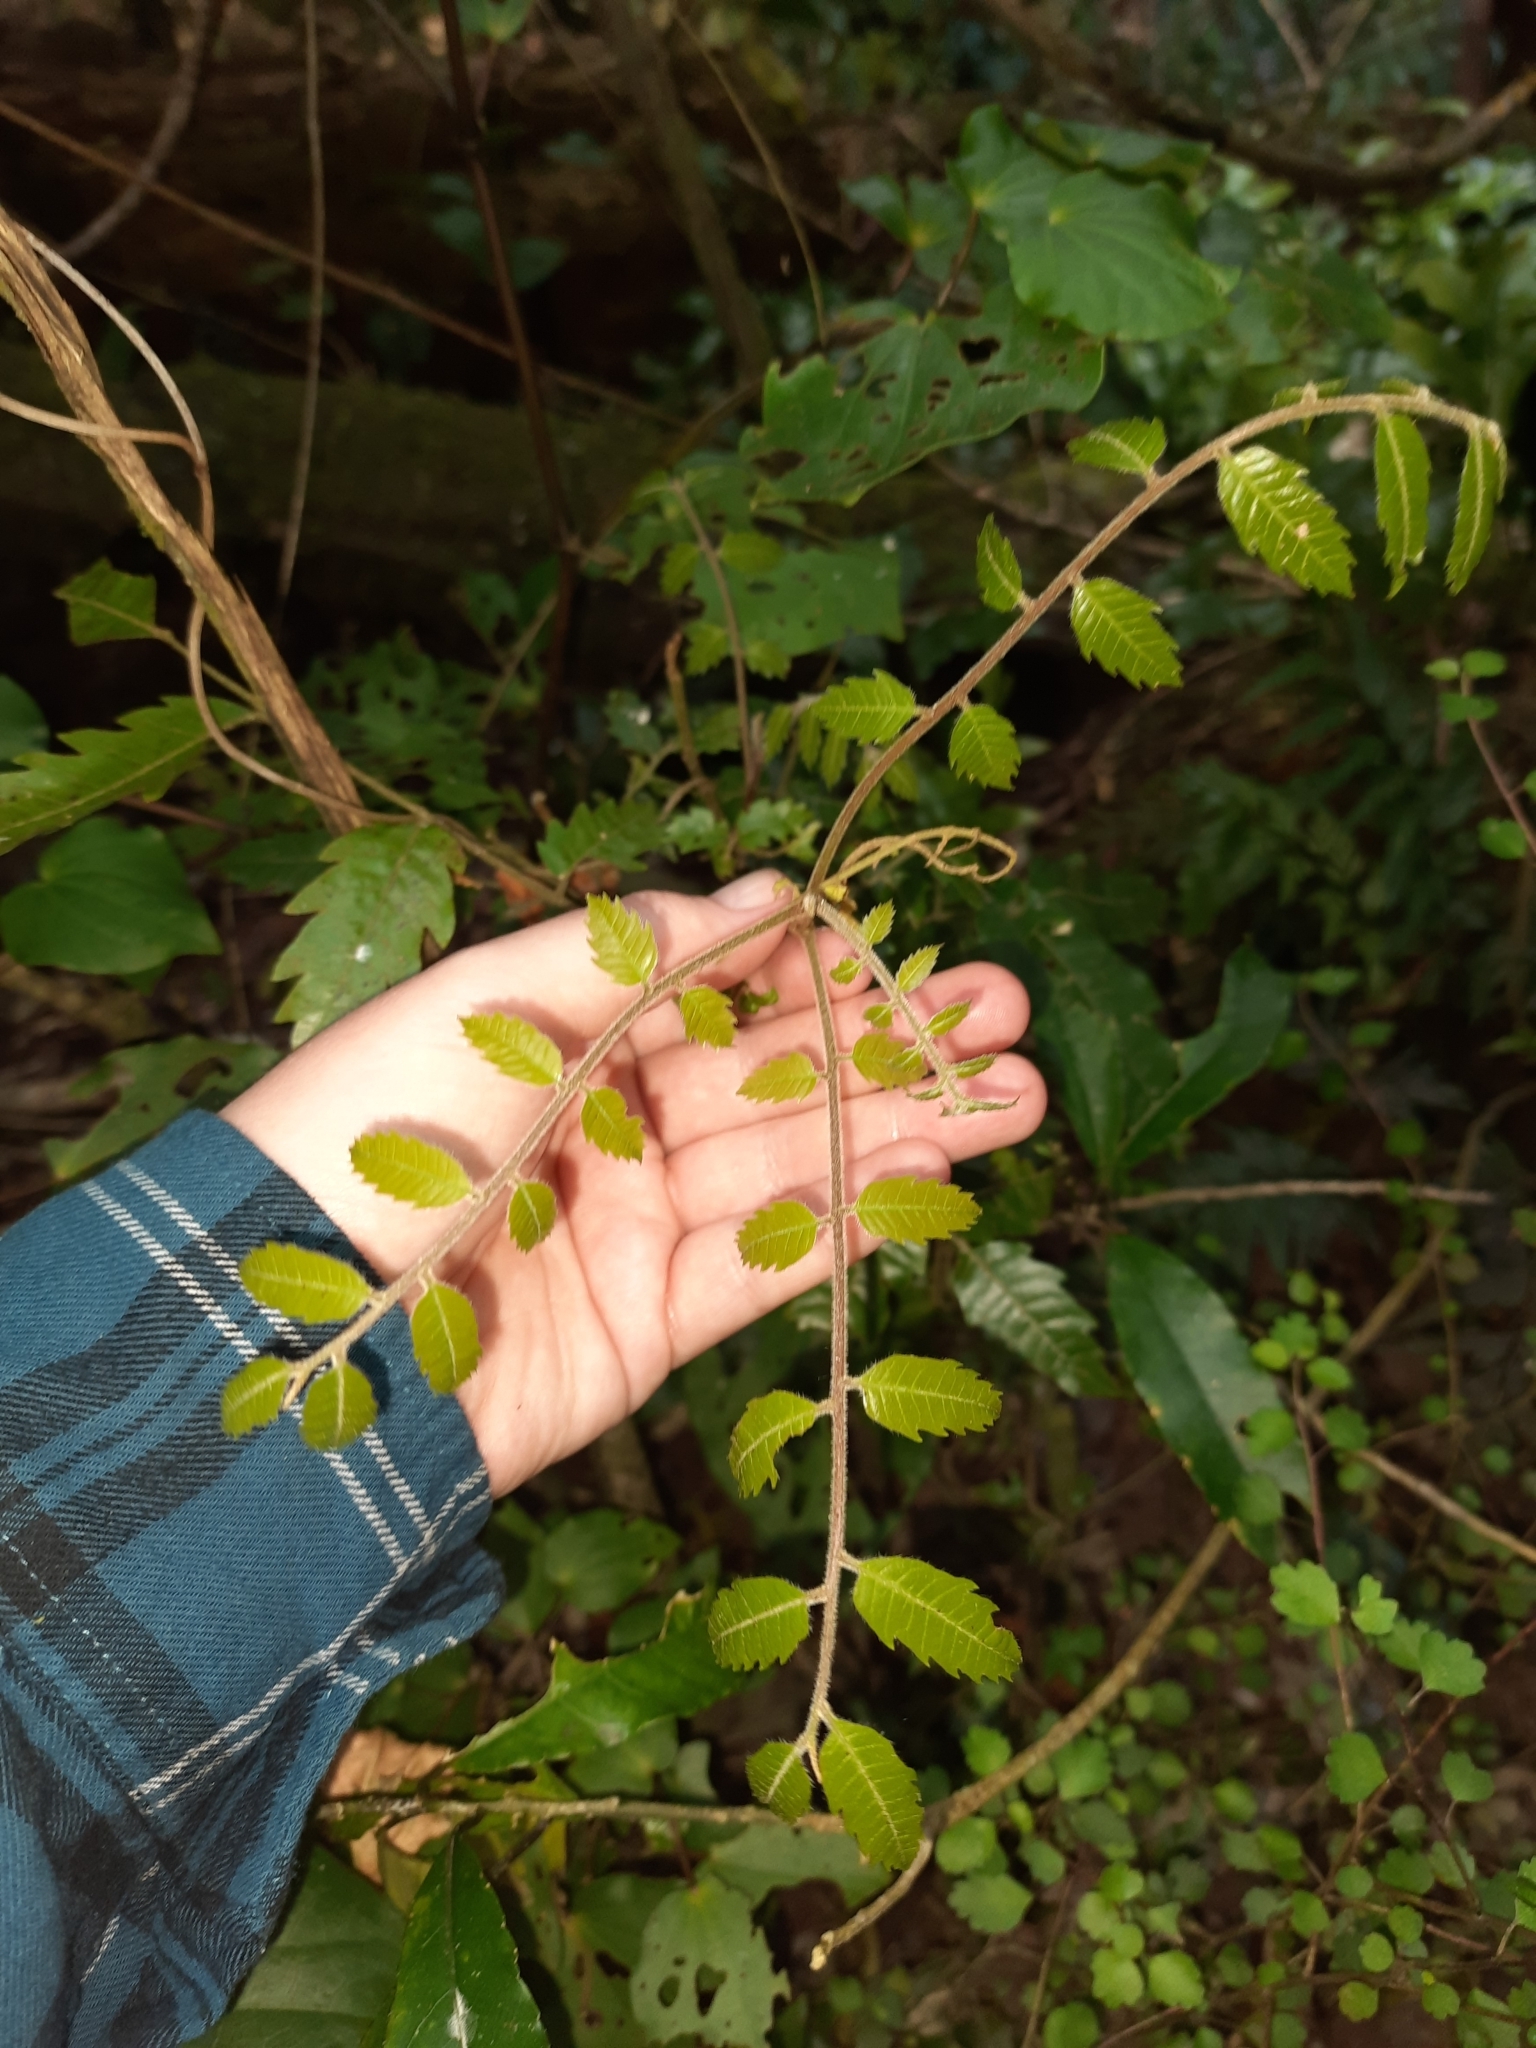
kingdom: Plantae
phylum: Tracheophyta
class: Magnoliopsida
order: Sapindales
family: Sapindaceae
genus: Alectryon
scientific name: Alectryon excelsus
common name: Three kings titoki
